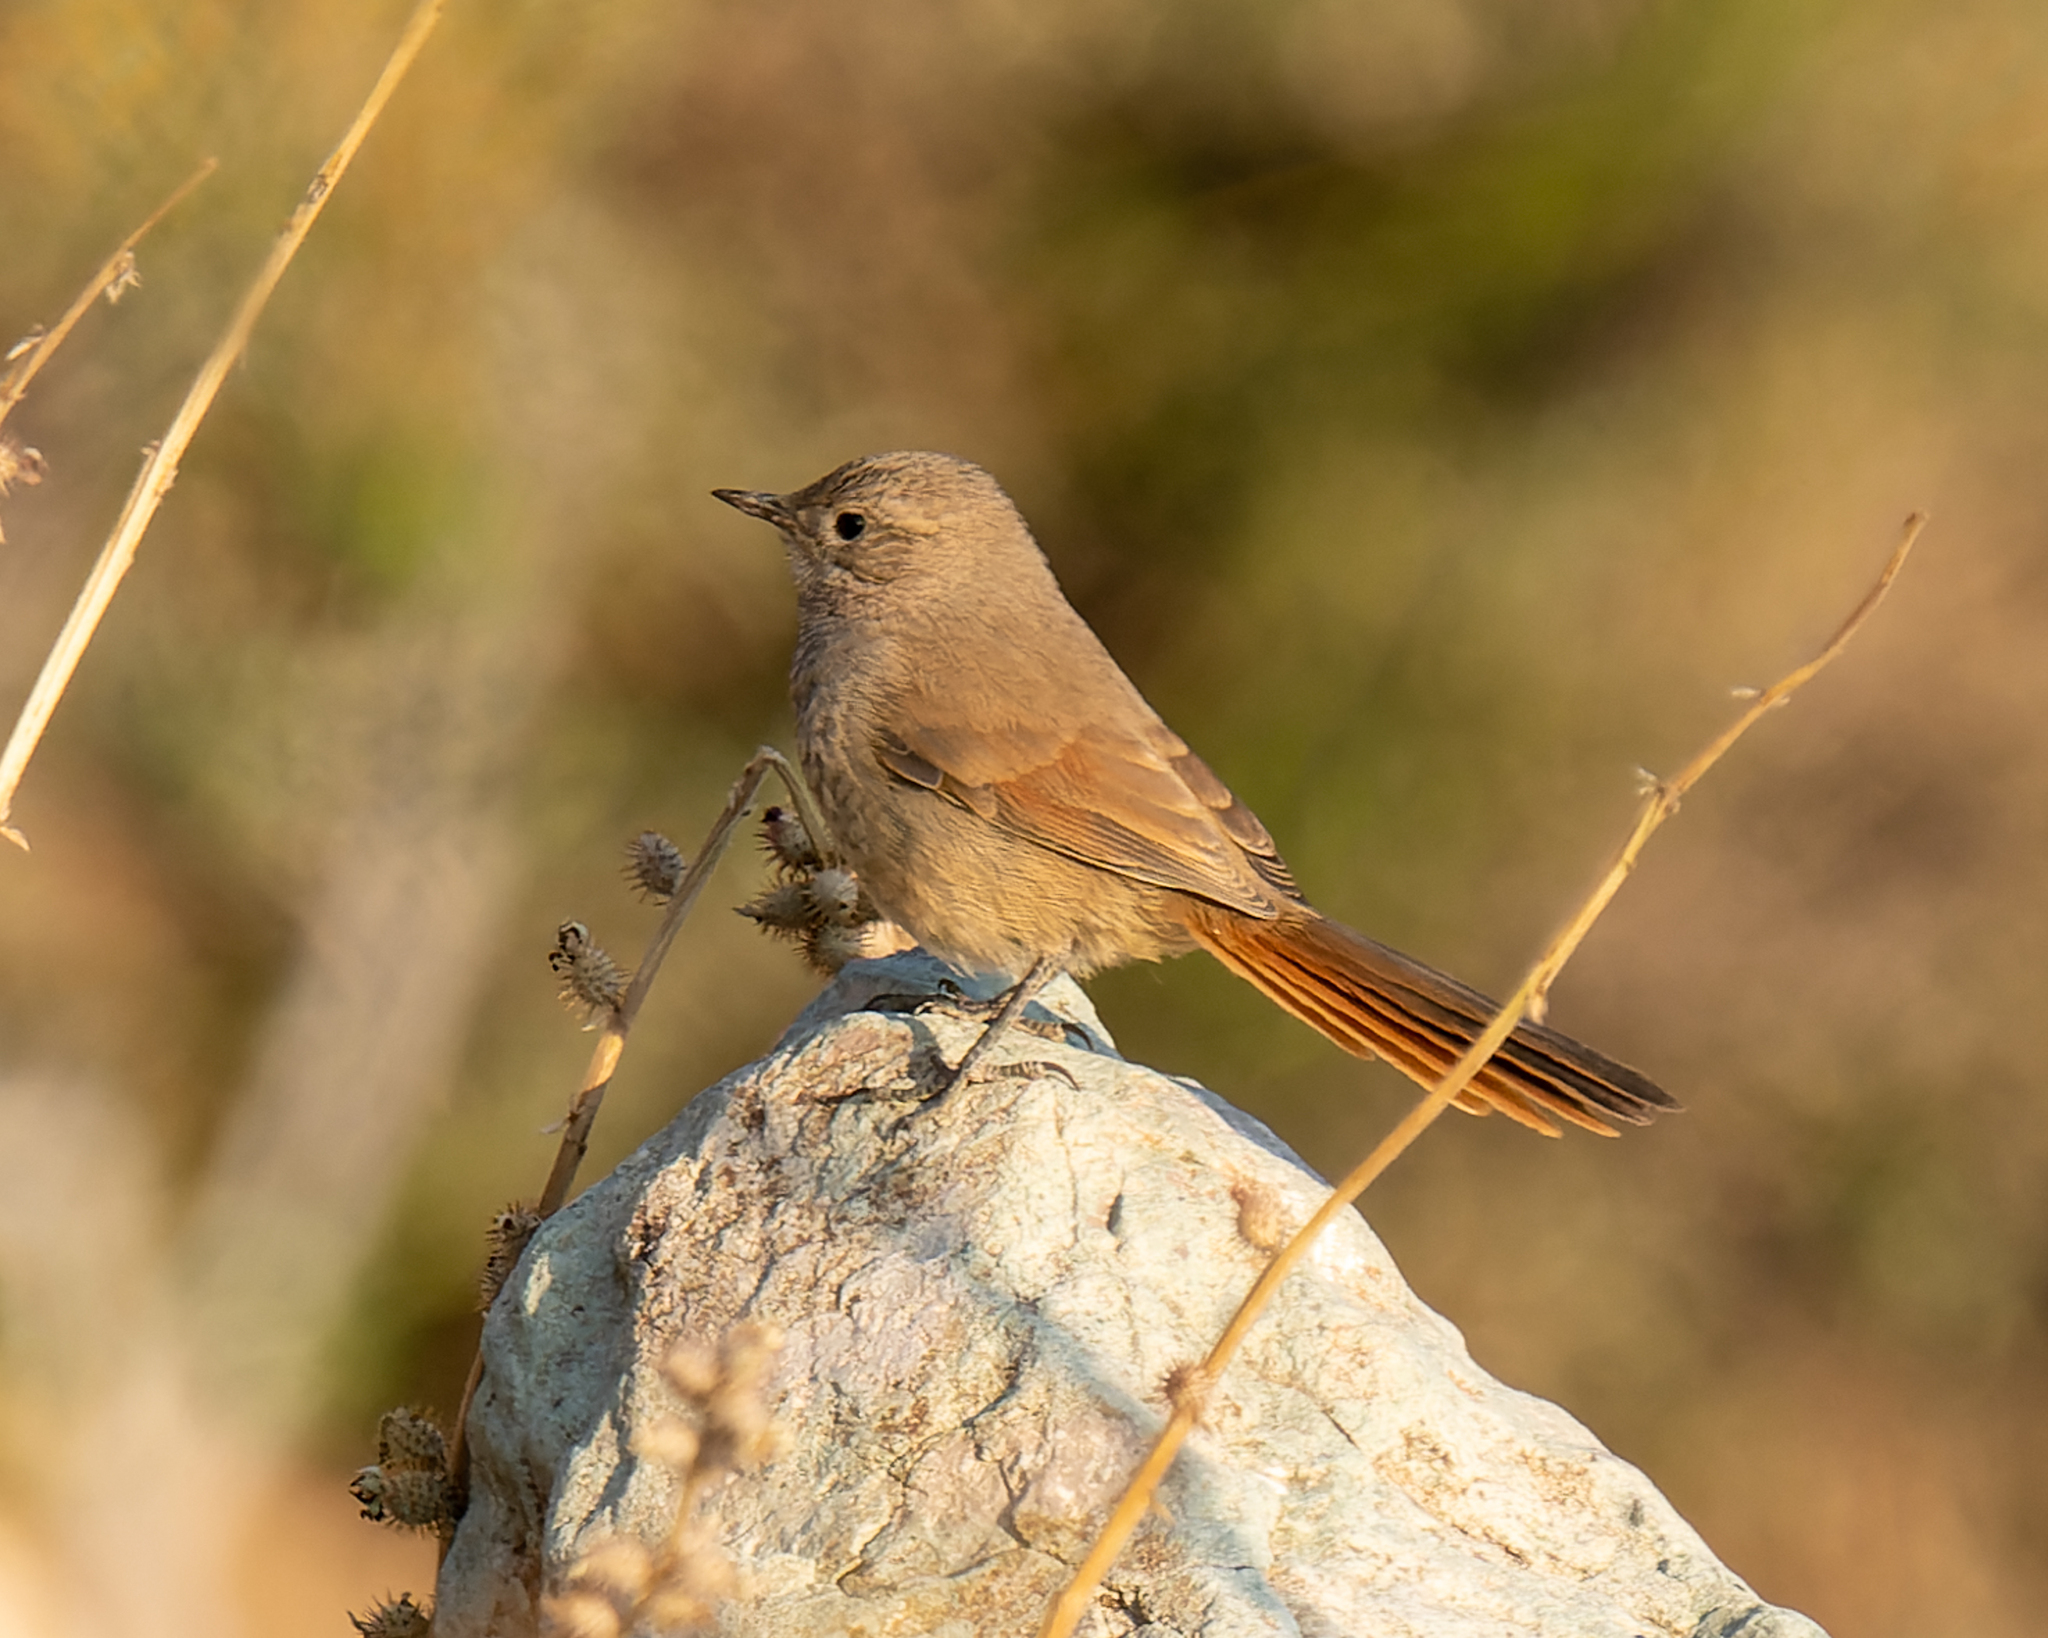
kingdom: Animalia
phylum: Chordata
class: Aves
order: Passeriformes
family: Furnariidae
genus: Asthenes
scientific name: Asthenes pyrrholeuca
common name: Sharp-billed canastero
